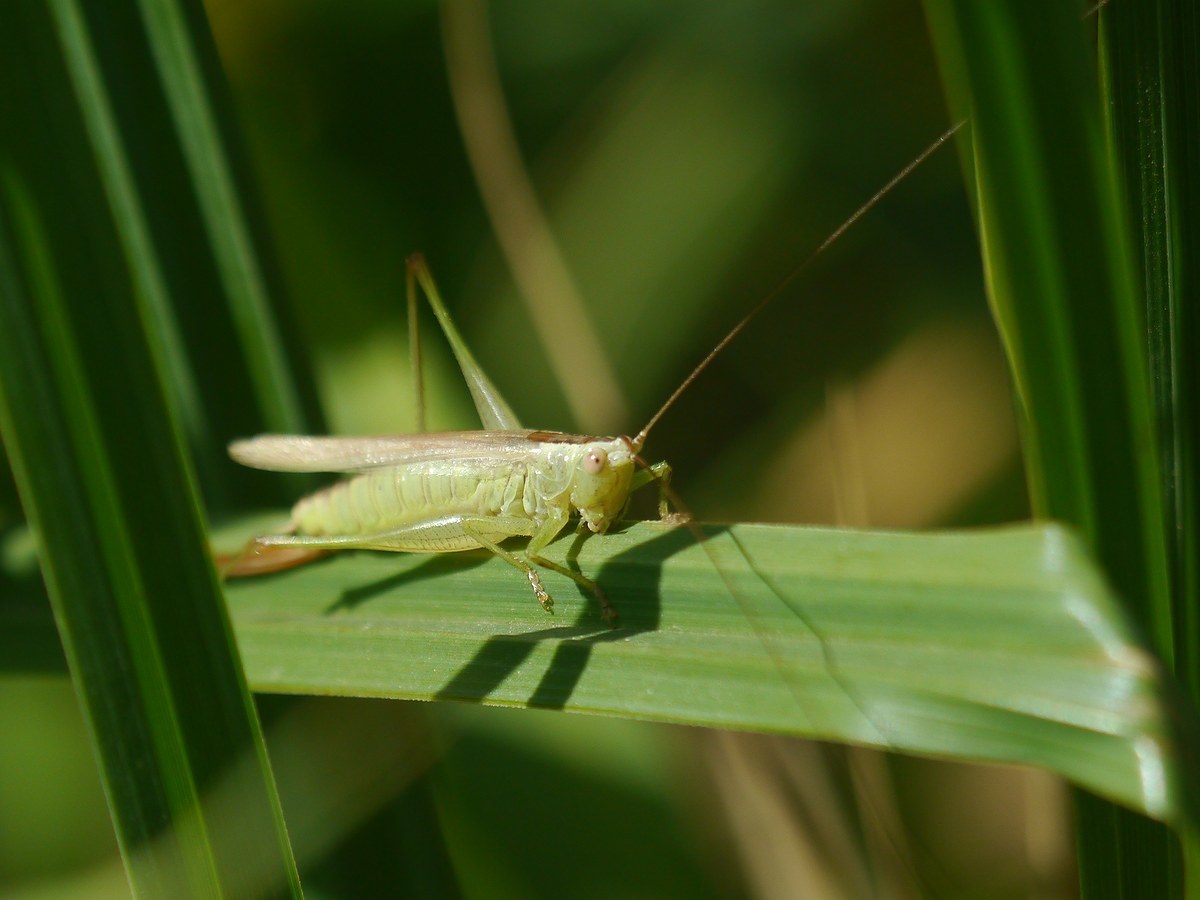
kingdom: Animalia
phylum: Arthropoda
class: Insecta
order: Orthoptera
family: Tettigoniidae
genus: Conocephalus
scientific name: Conocephalus fuscus
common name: Long-winged conehead
